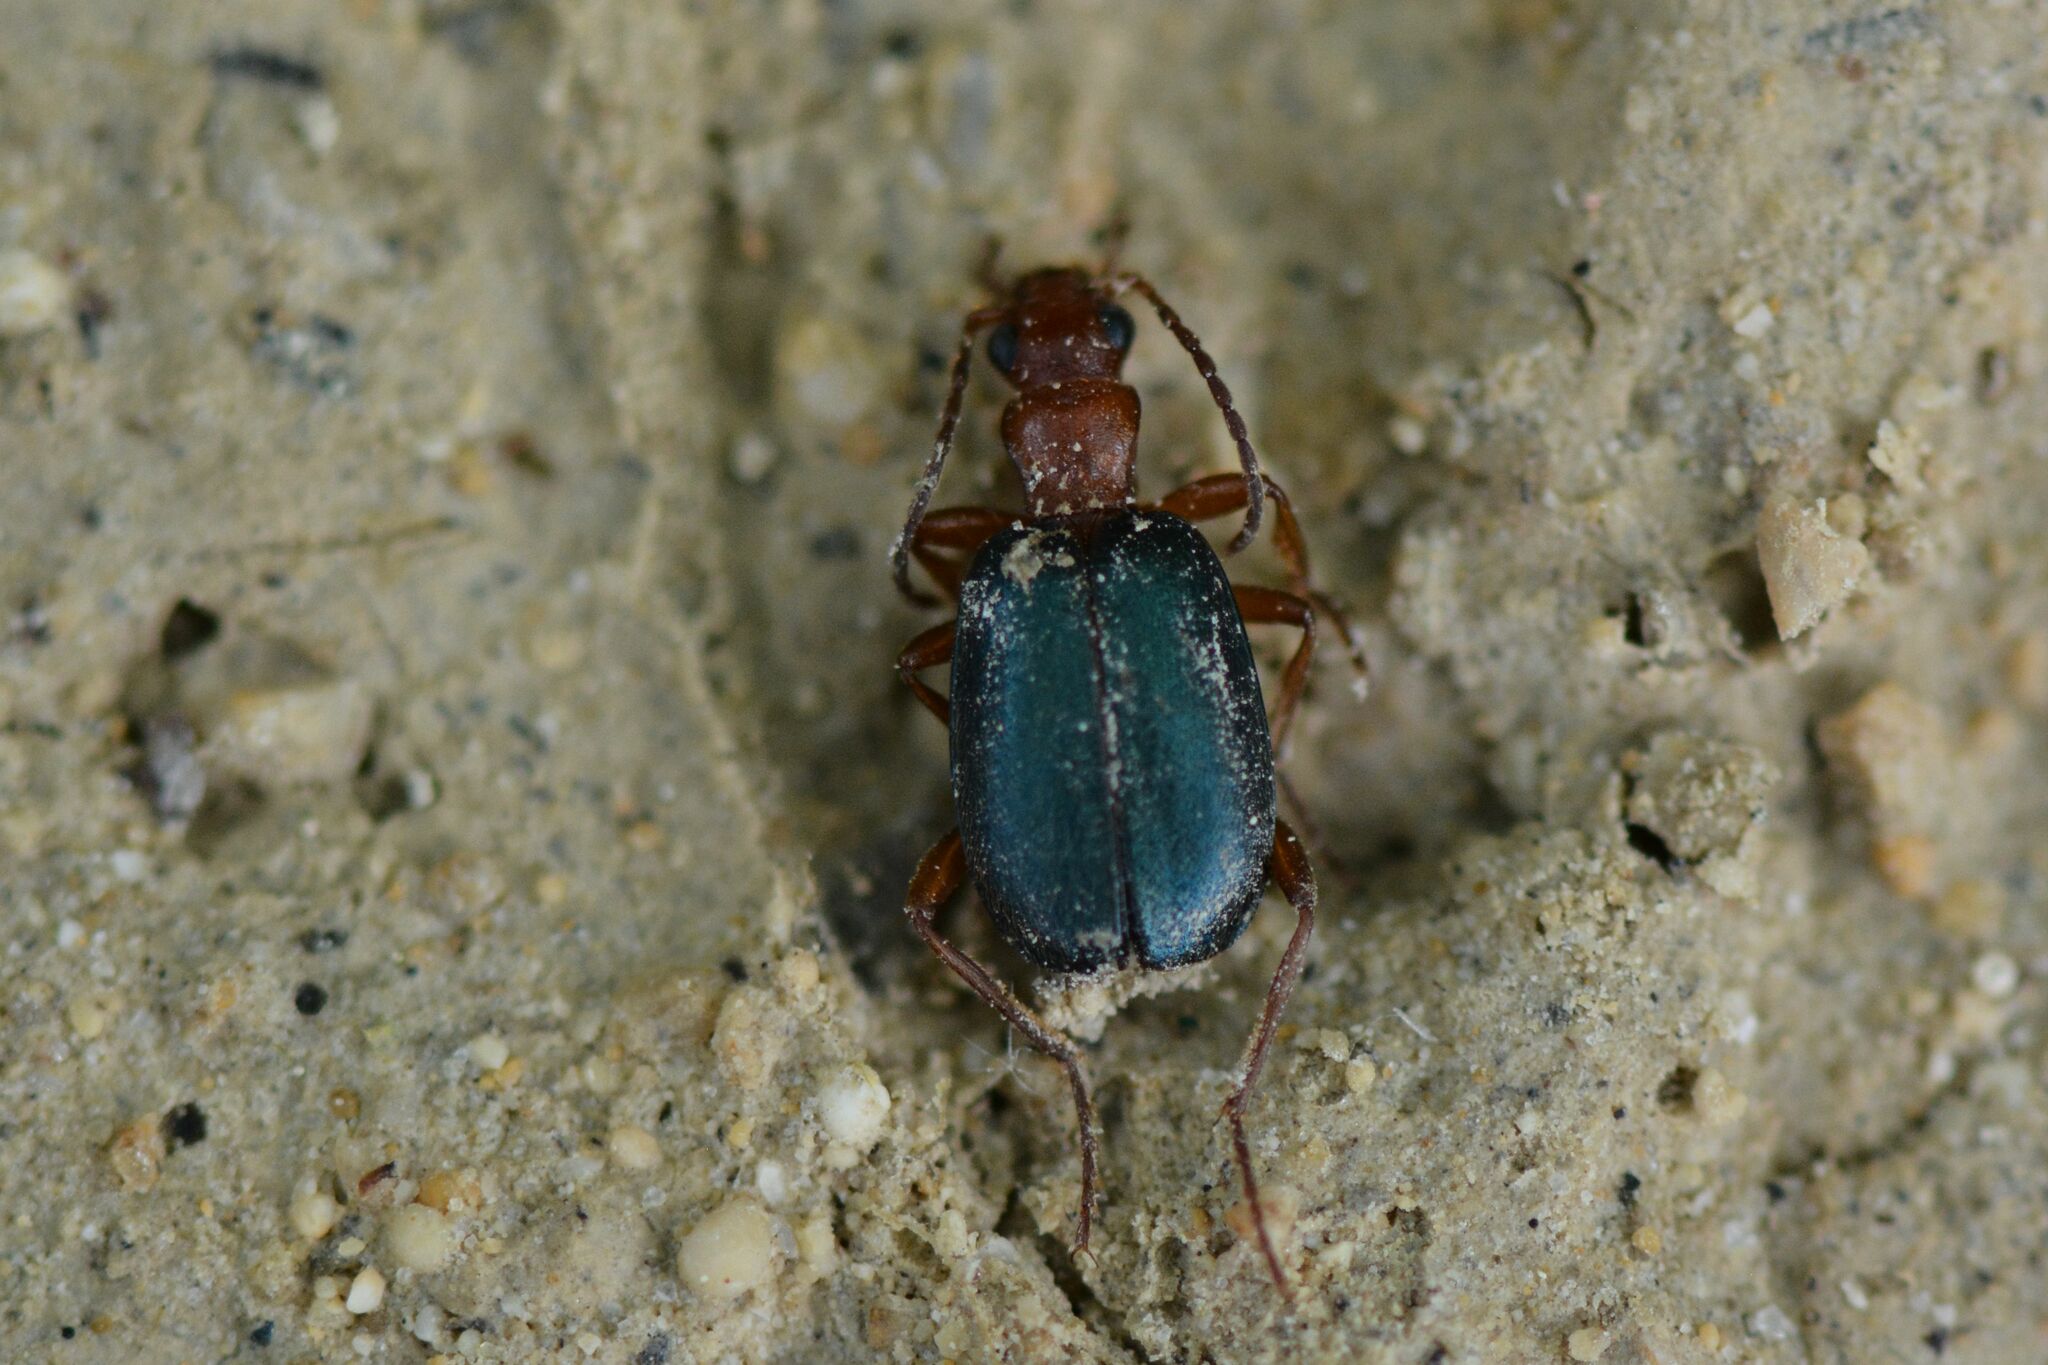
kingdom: Animalia
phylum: Arthropoda
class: Insecta
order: Coleoptera
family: Carabidae
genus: Brachinus
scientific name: Brachinus explodens
